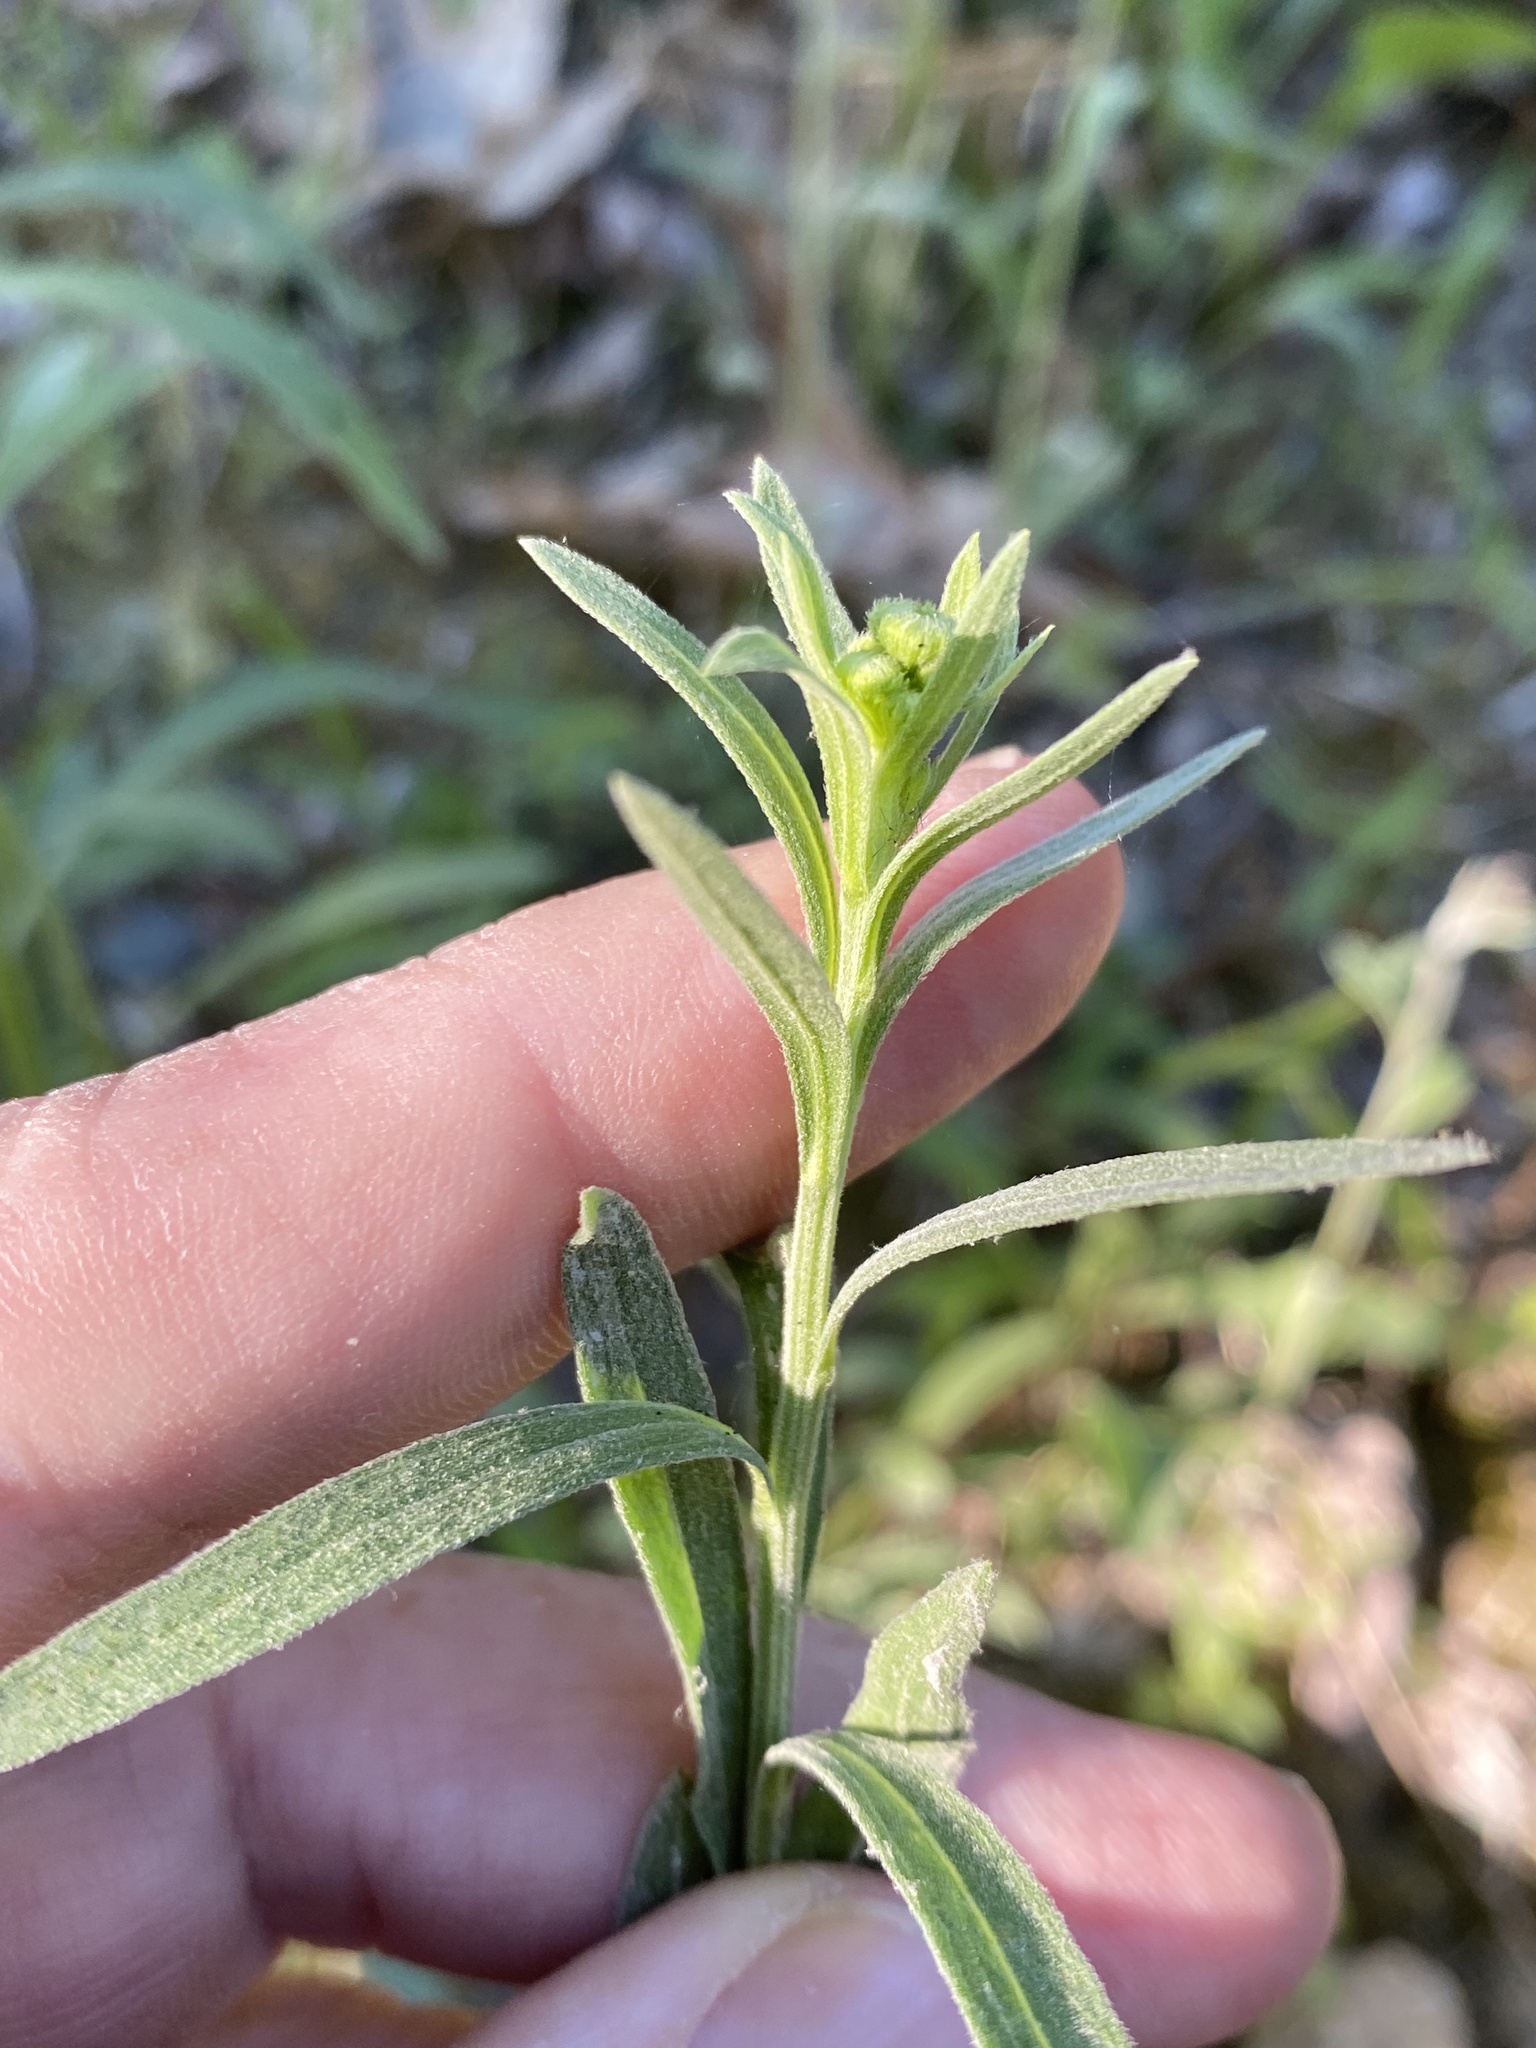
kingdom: Plantae
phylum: Tracheophyta
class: Magnoliopsida
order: Asterales
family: Asteraceae
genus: Erigeron
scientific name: Erigeron strigosus
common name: Common eastern fleabane
